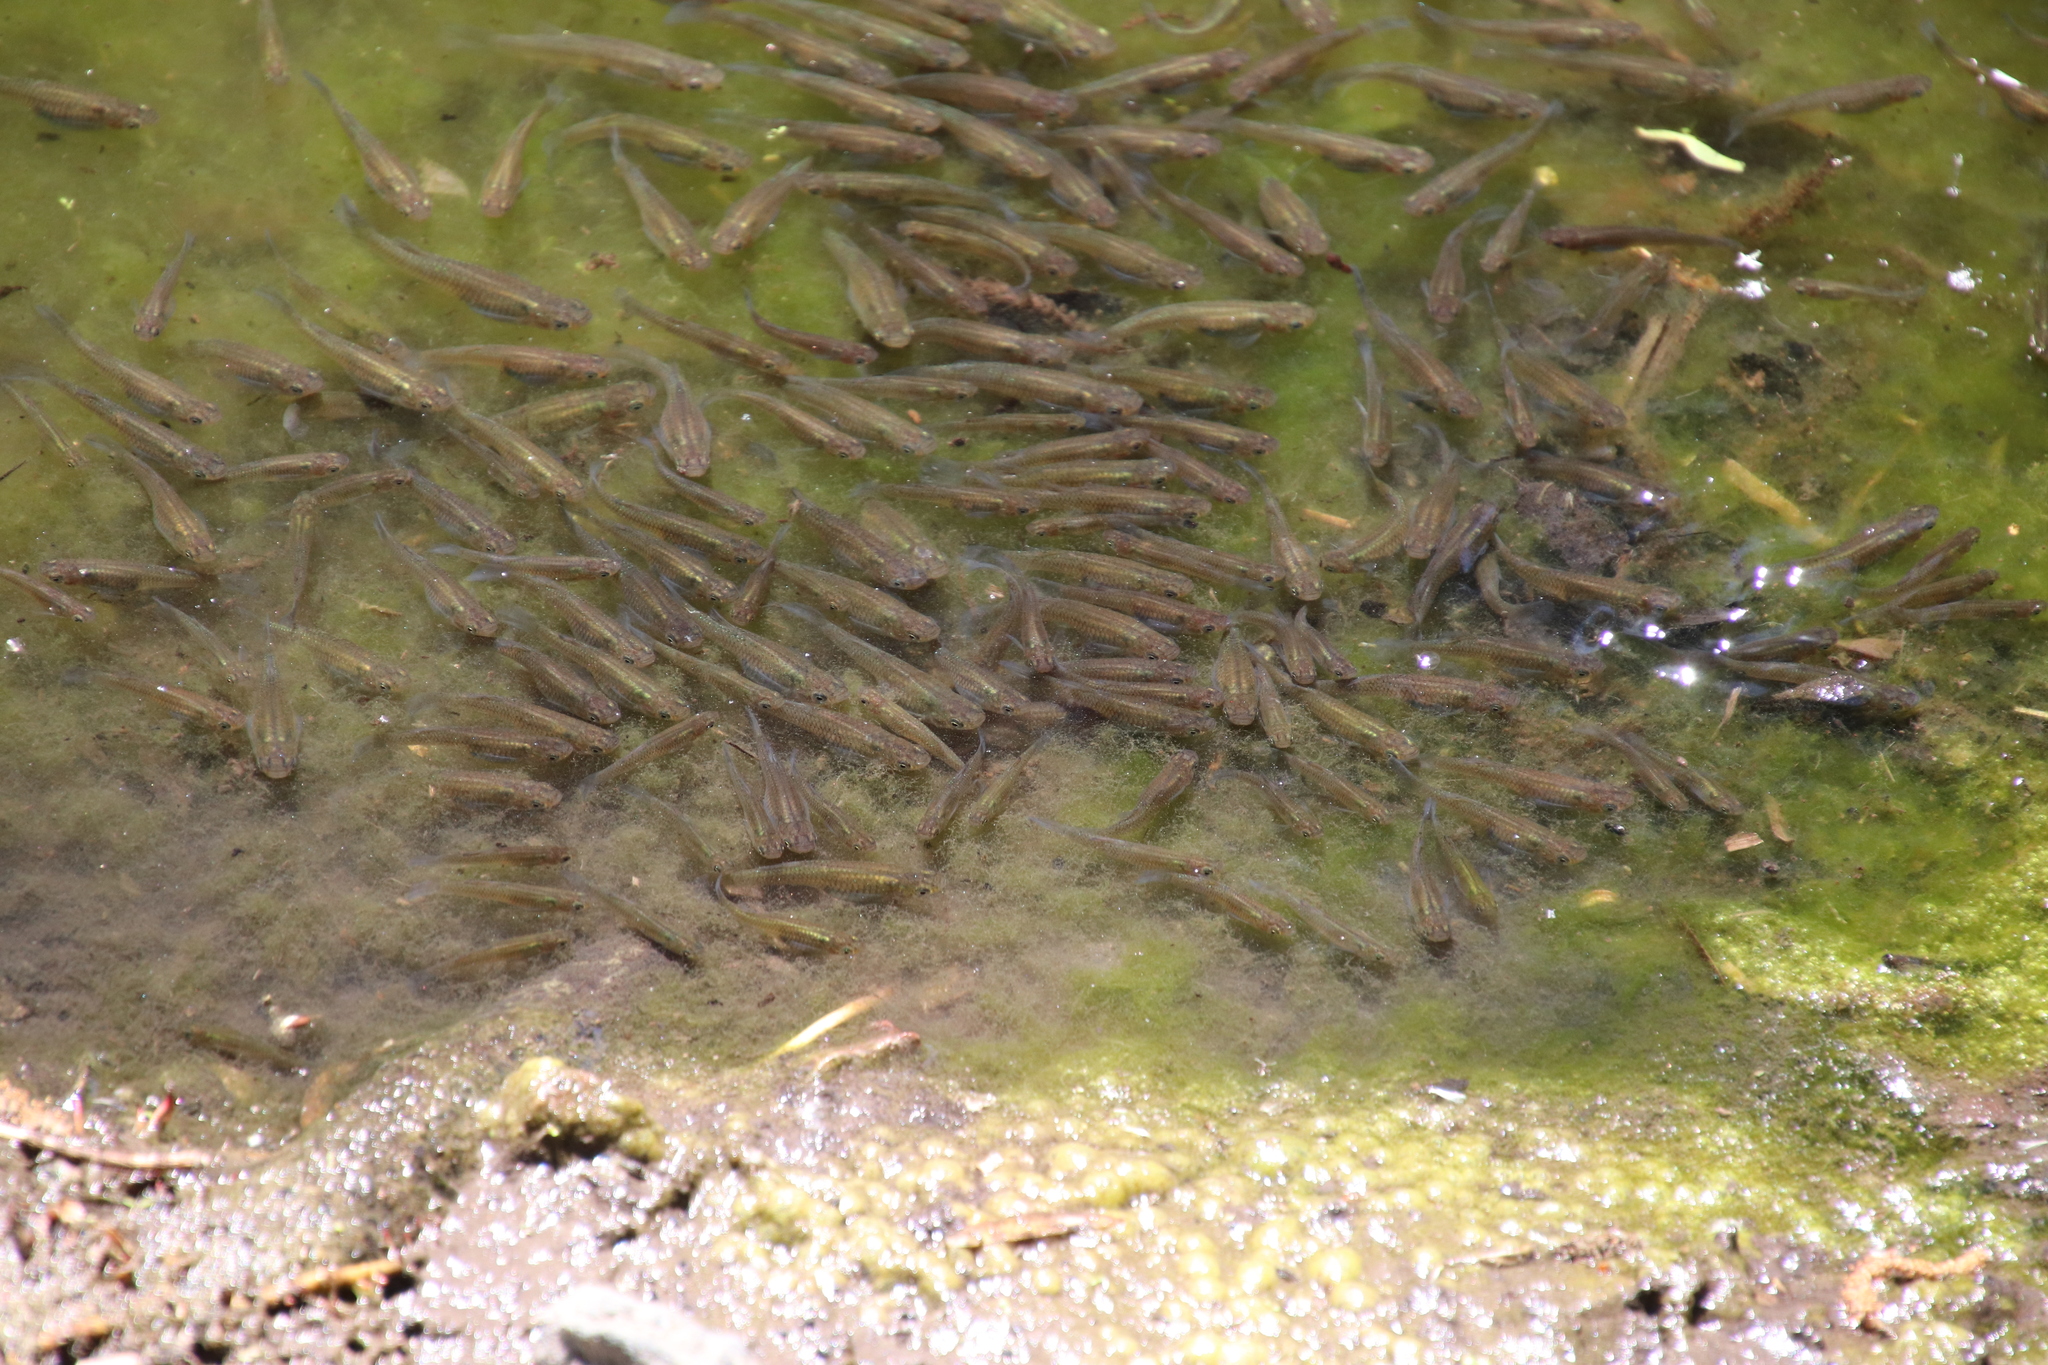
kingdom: Animalia
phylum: Chordata
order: Cyprinodontiformes
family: Poeciliidae
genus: Gambusia
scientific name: Gambusia affinis
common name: Mosquitofish
